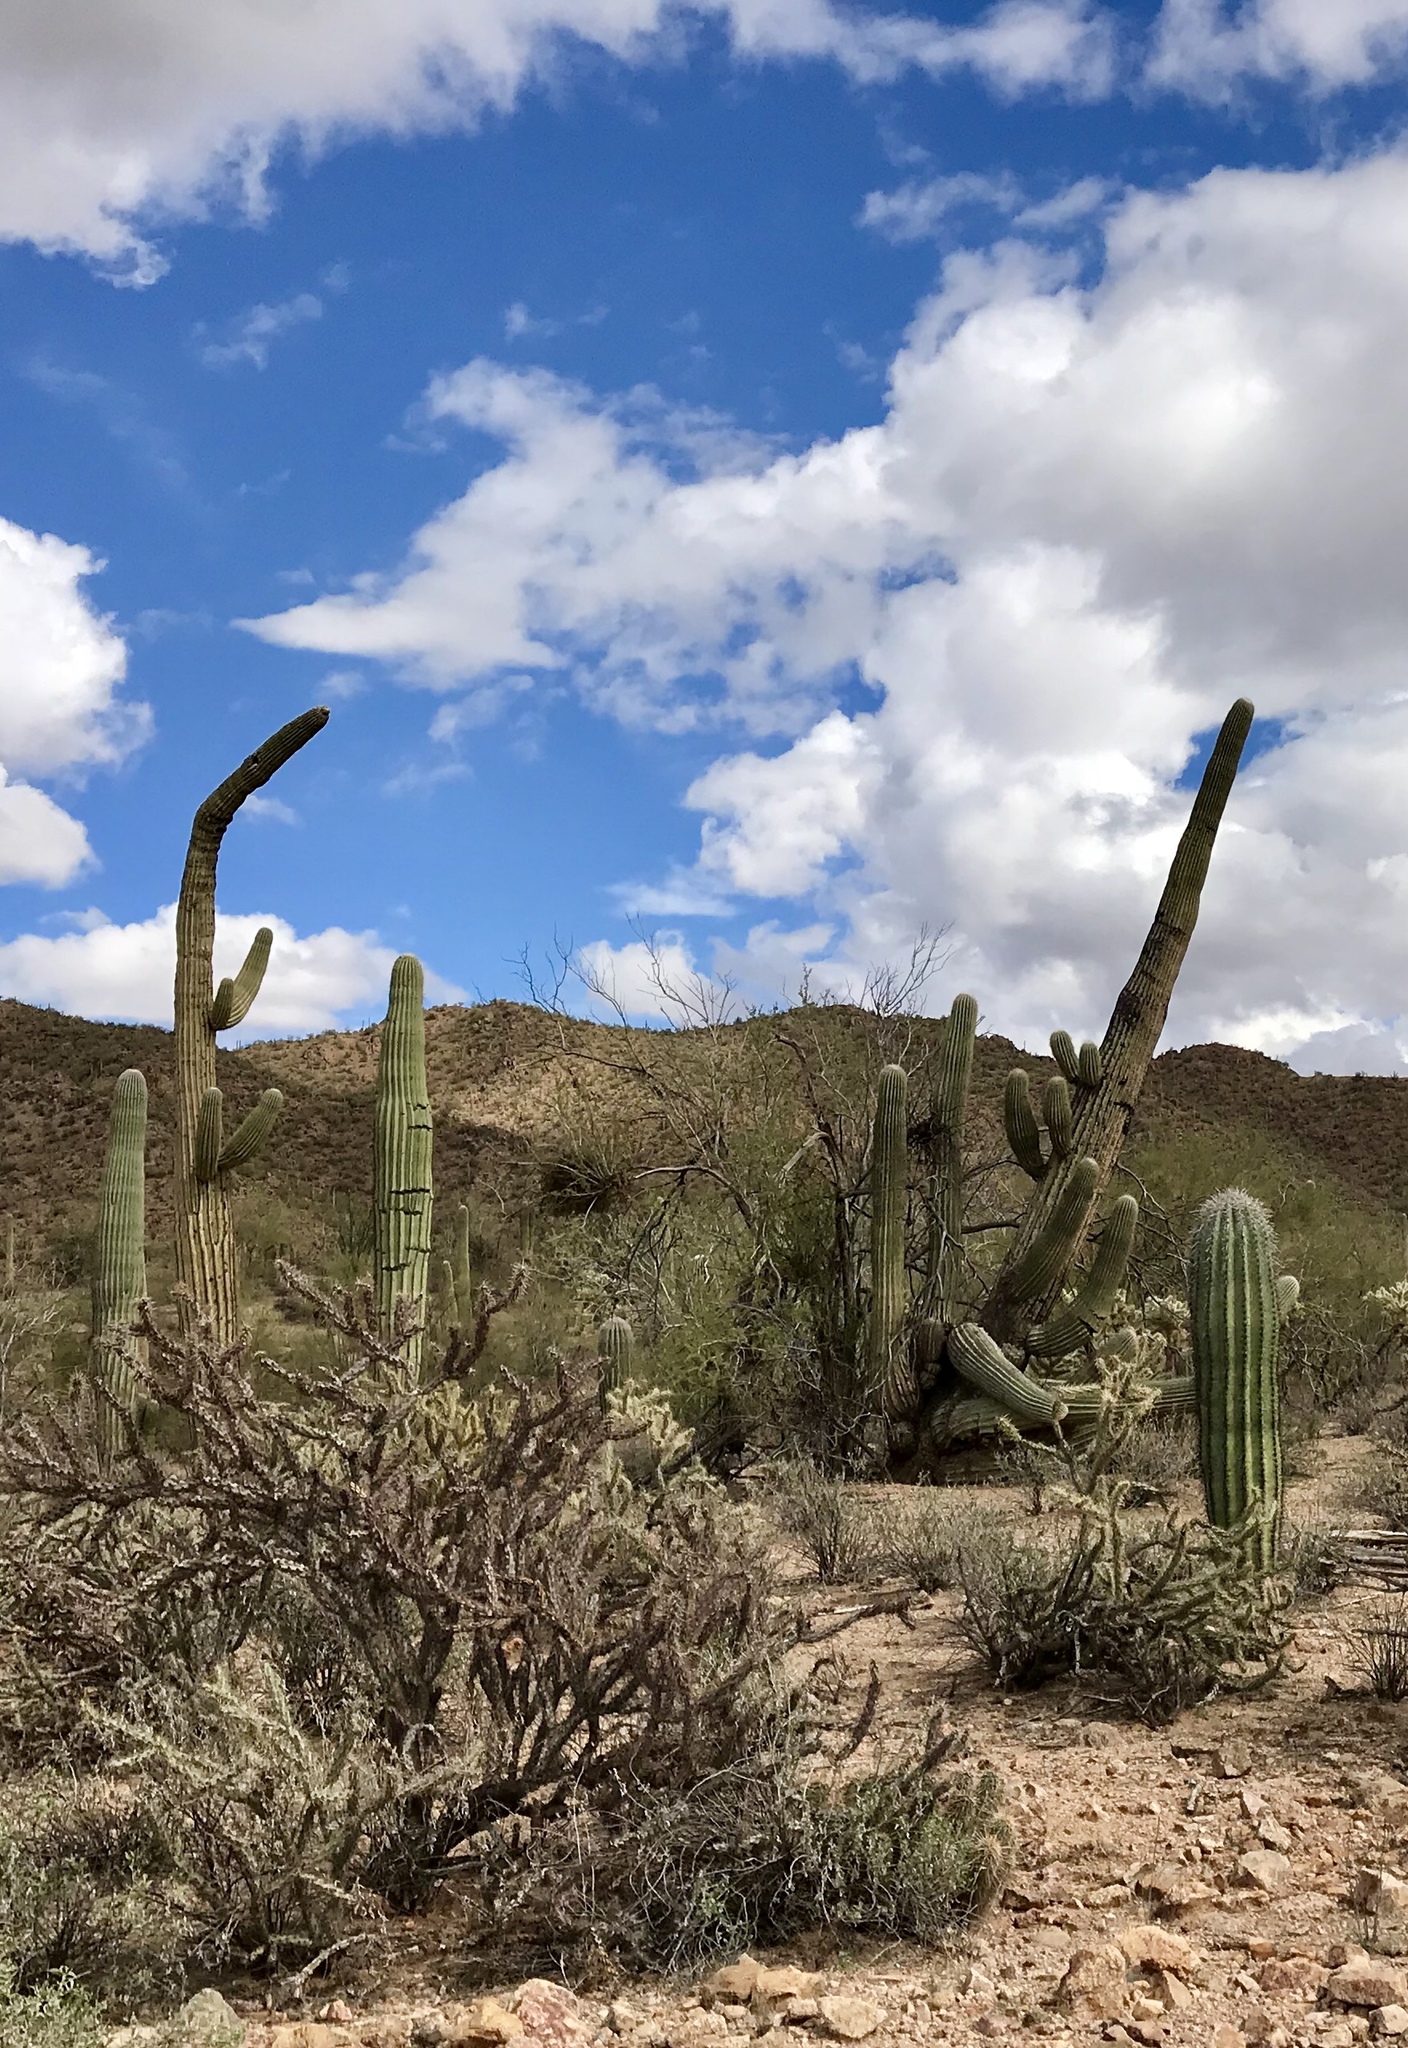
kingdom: Plantae
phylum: Tracheophyta
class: Magnoliopsida
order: Caryophyllales
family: Cactaceae
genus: Carnegiea
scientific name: Carnegiea gigantea
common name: Saguaro
